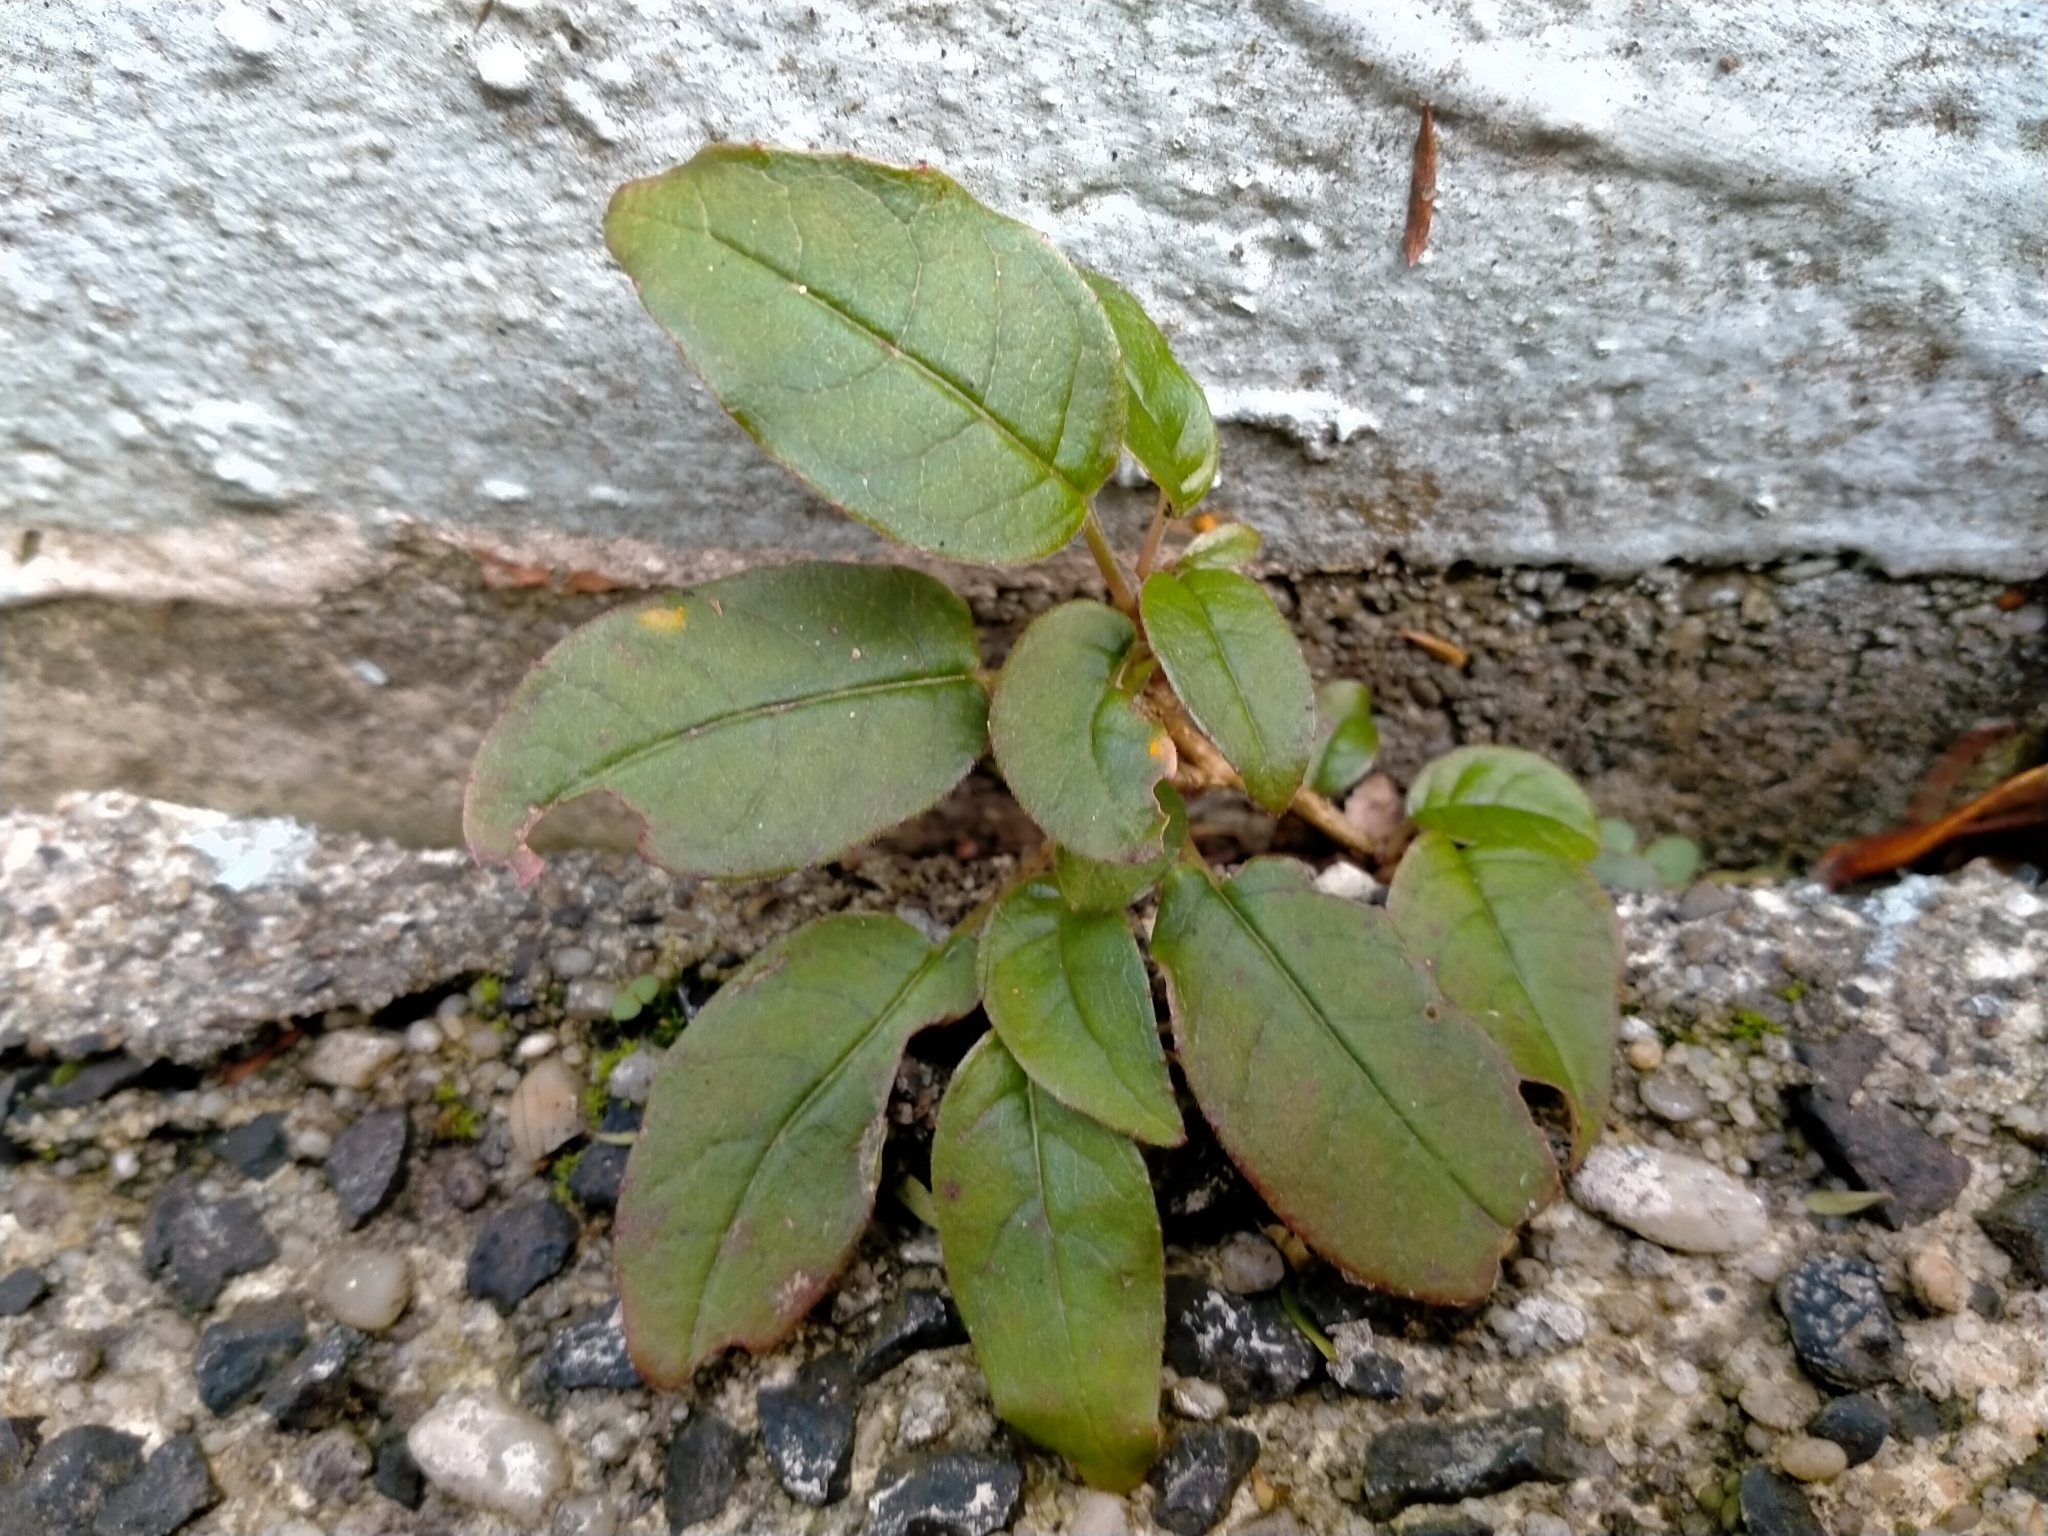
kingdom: Plantae
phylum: Tracheophyta
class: Magnoliopsida
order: Myrtales
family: Onagraceae
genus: Fuchsia
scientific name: Fuchsia excorticata
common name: Tree fuchsia
